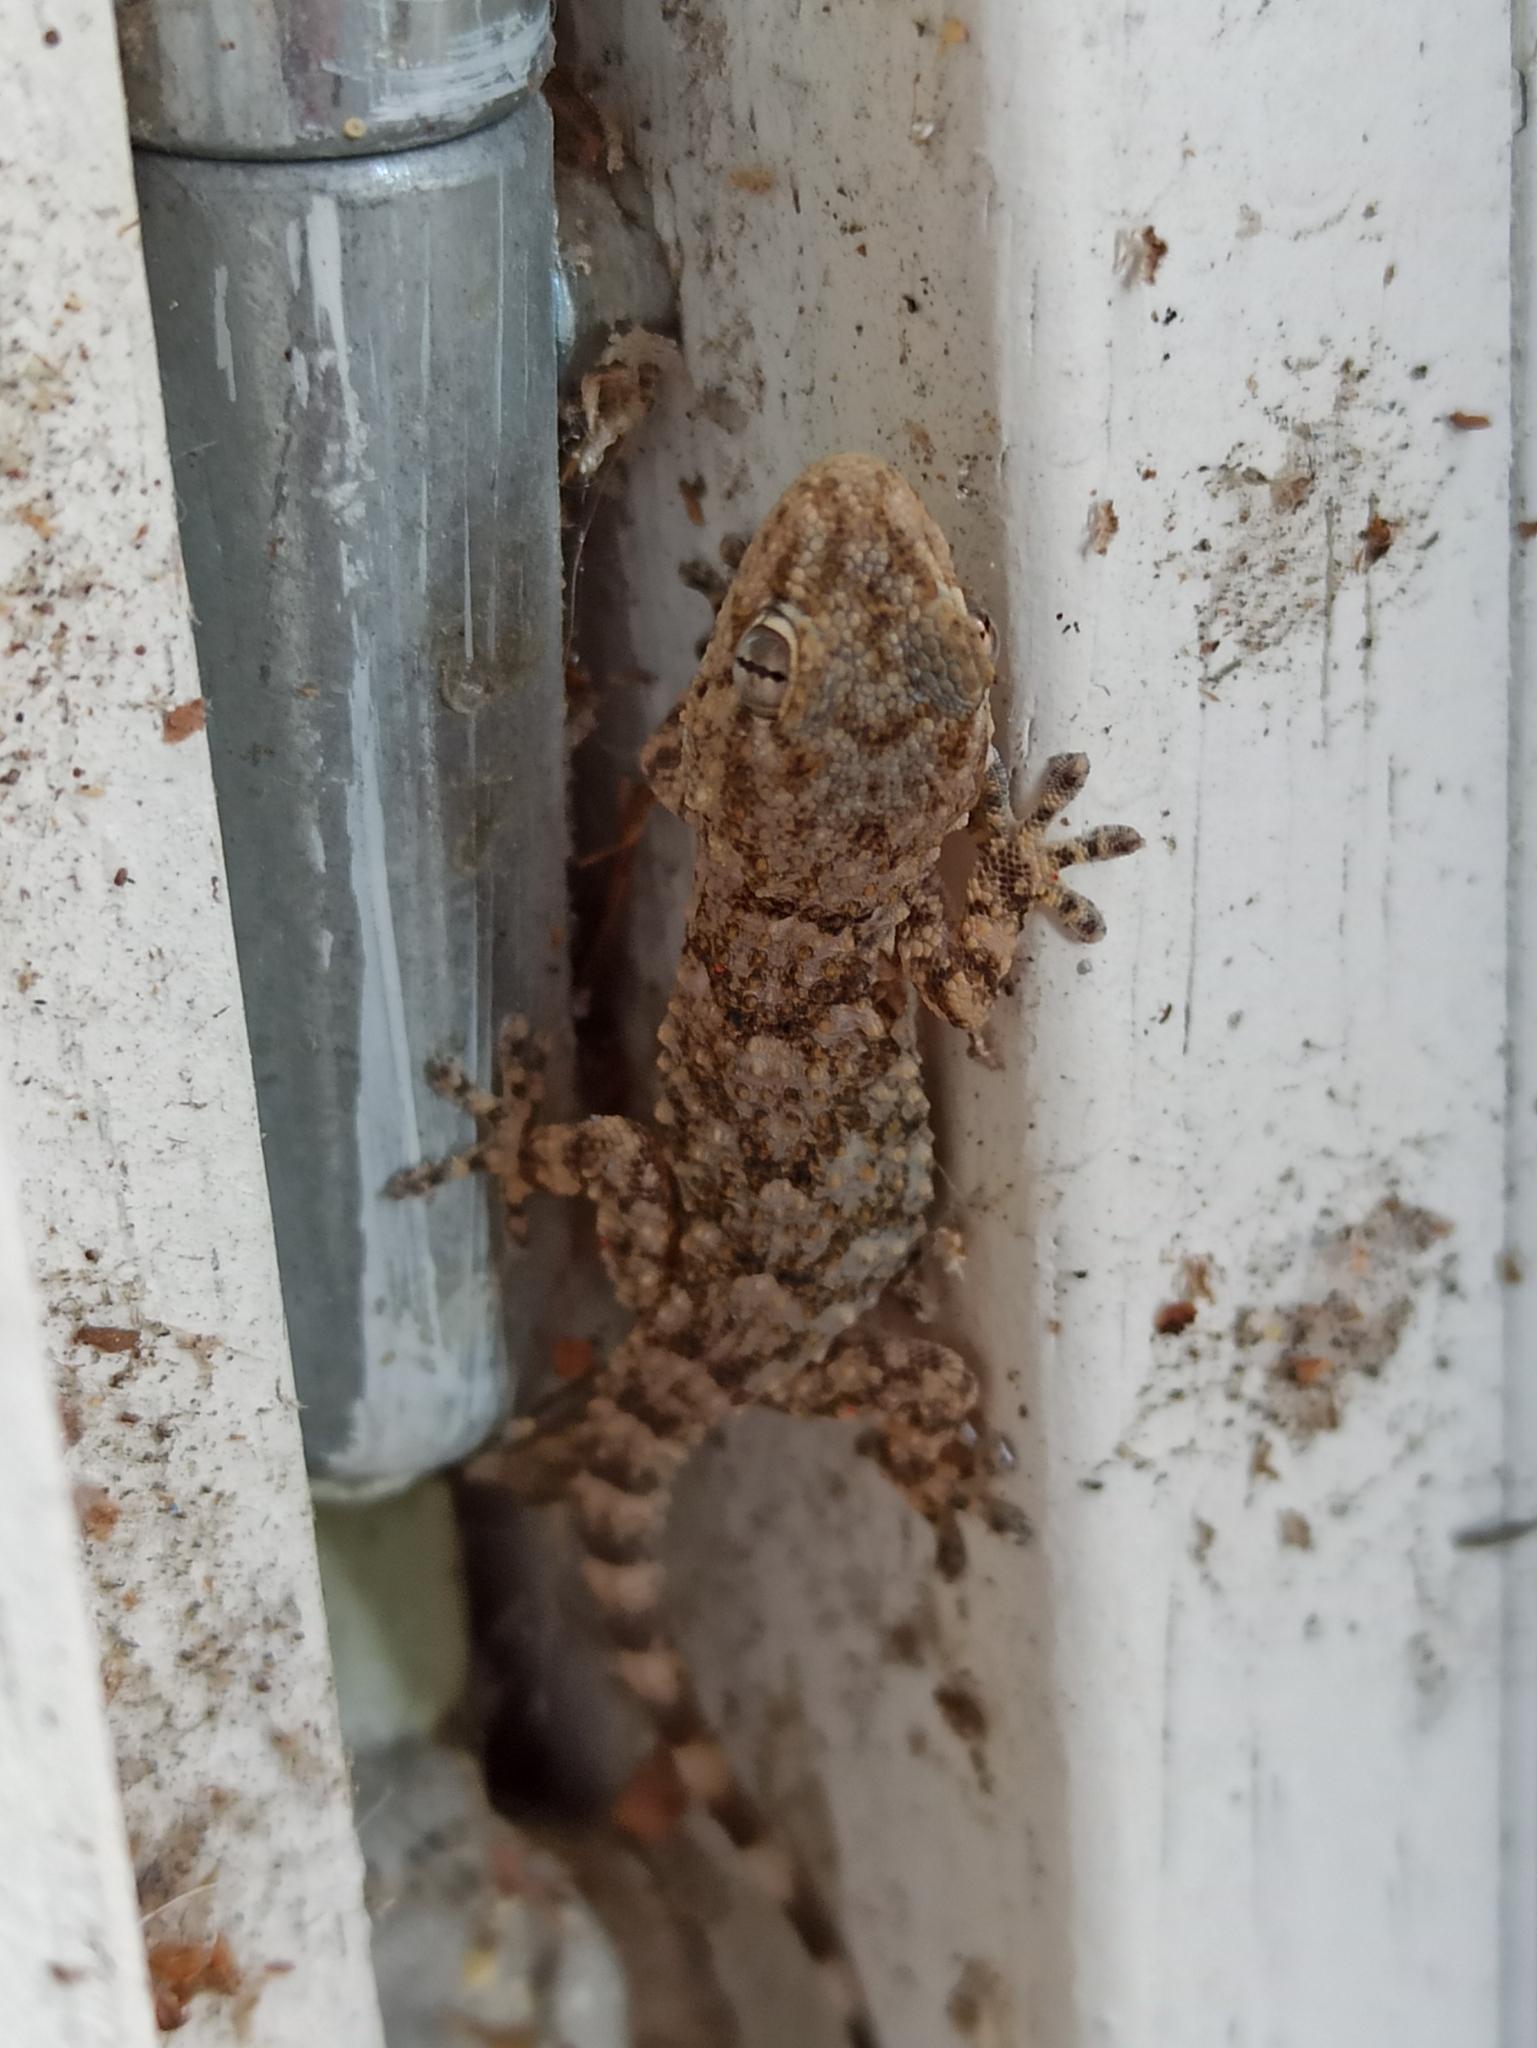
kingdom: Animalia
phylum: Chordata
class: Squamata
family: Phyllodactylidae
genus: Tarentola
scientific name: Tarentola mauritanica
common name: Moorish gecko
